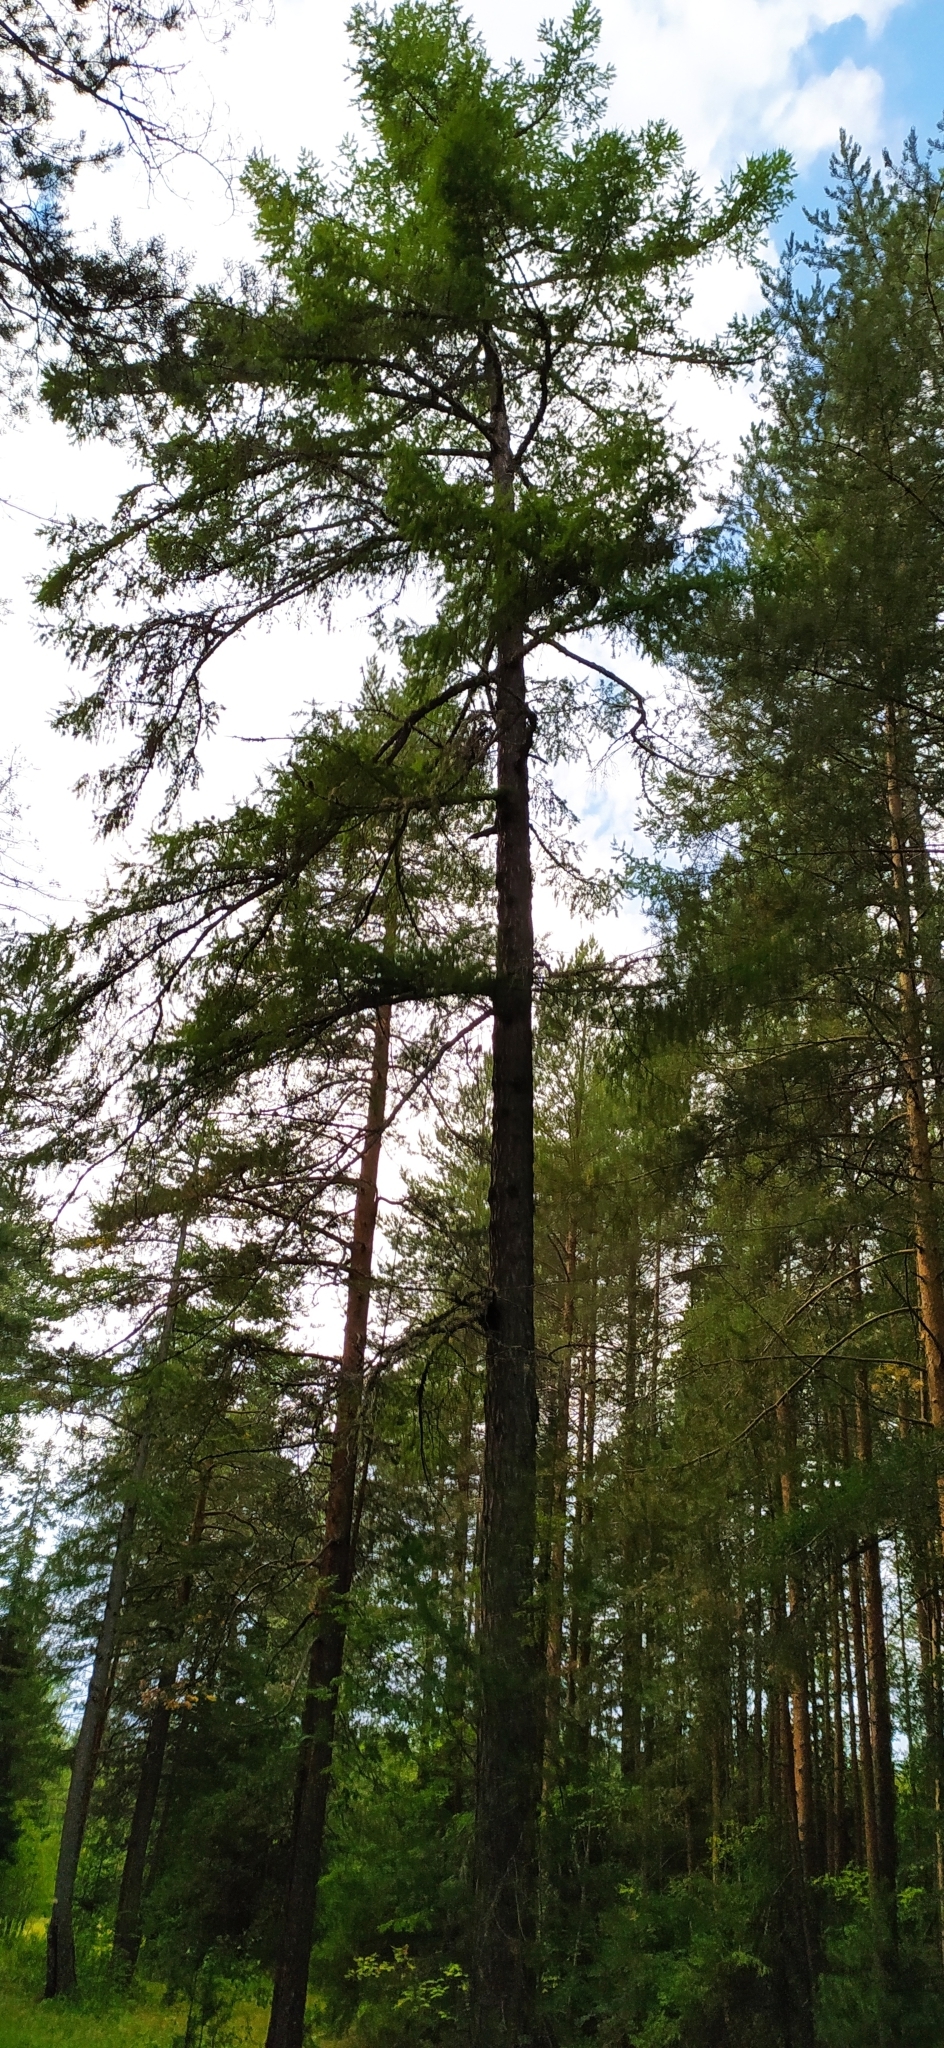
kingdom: Plantae
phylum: Tracheophyta
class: Pinopsida
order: Pinales
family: Pinaceae
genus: Larix
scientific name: Larix sibirica
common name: Siberian larch
